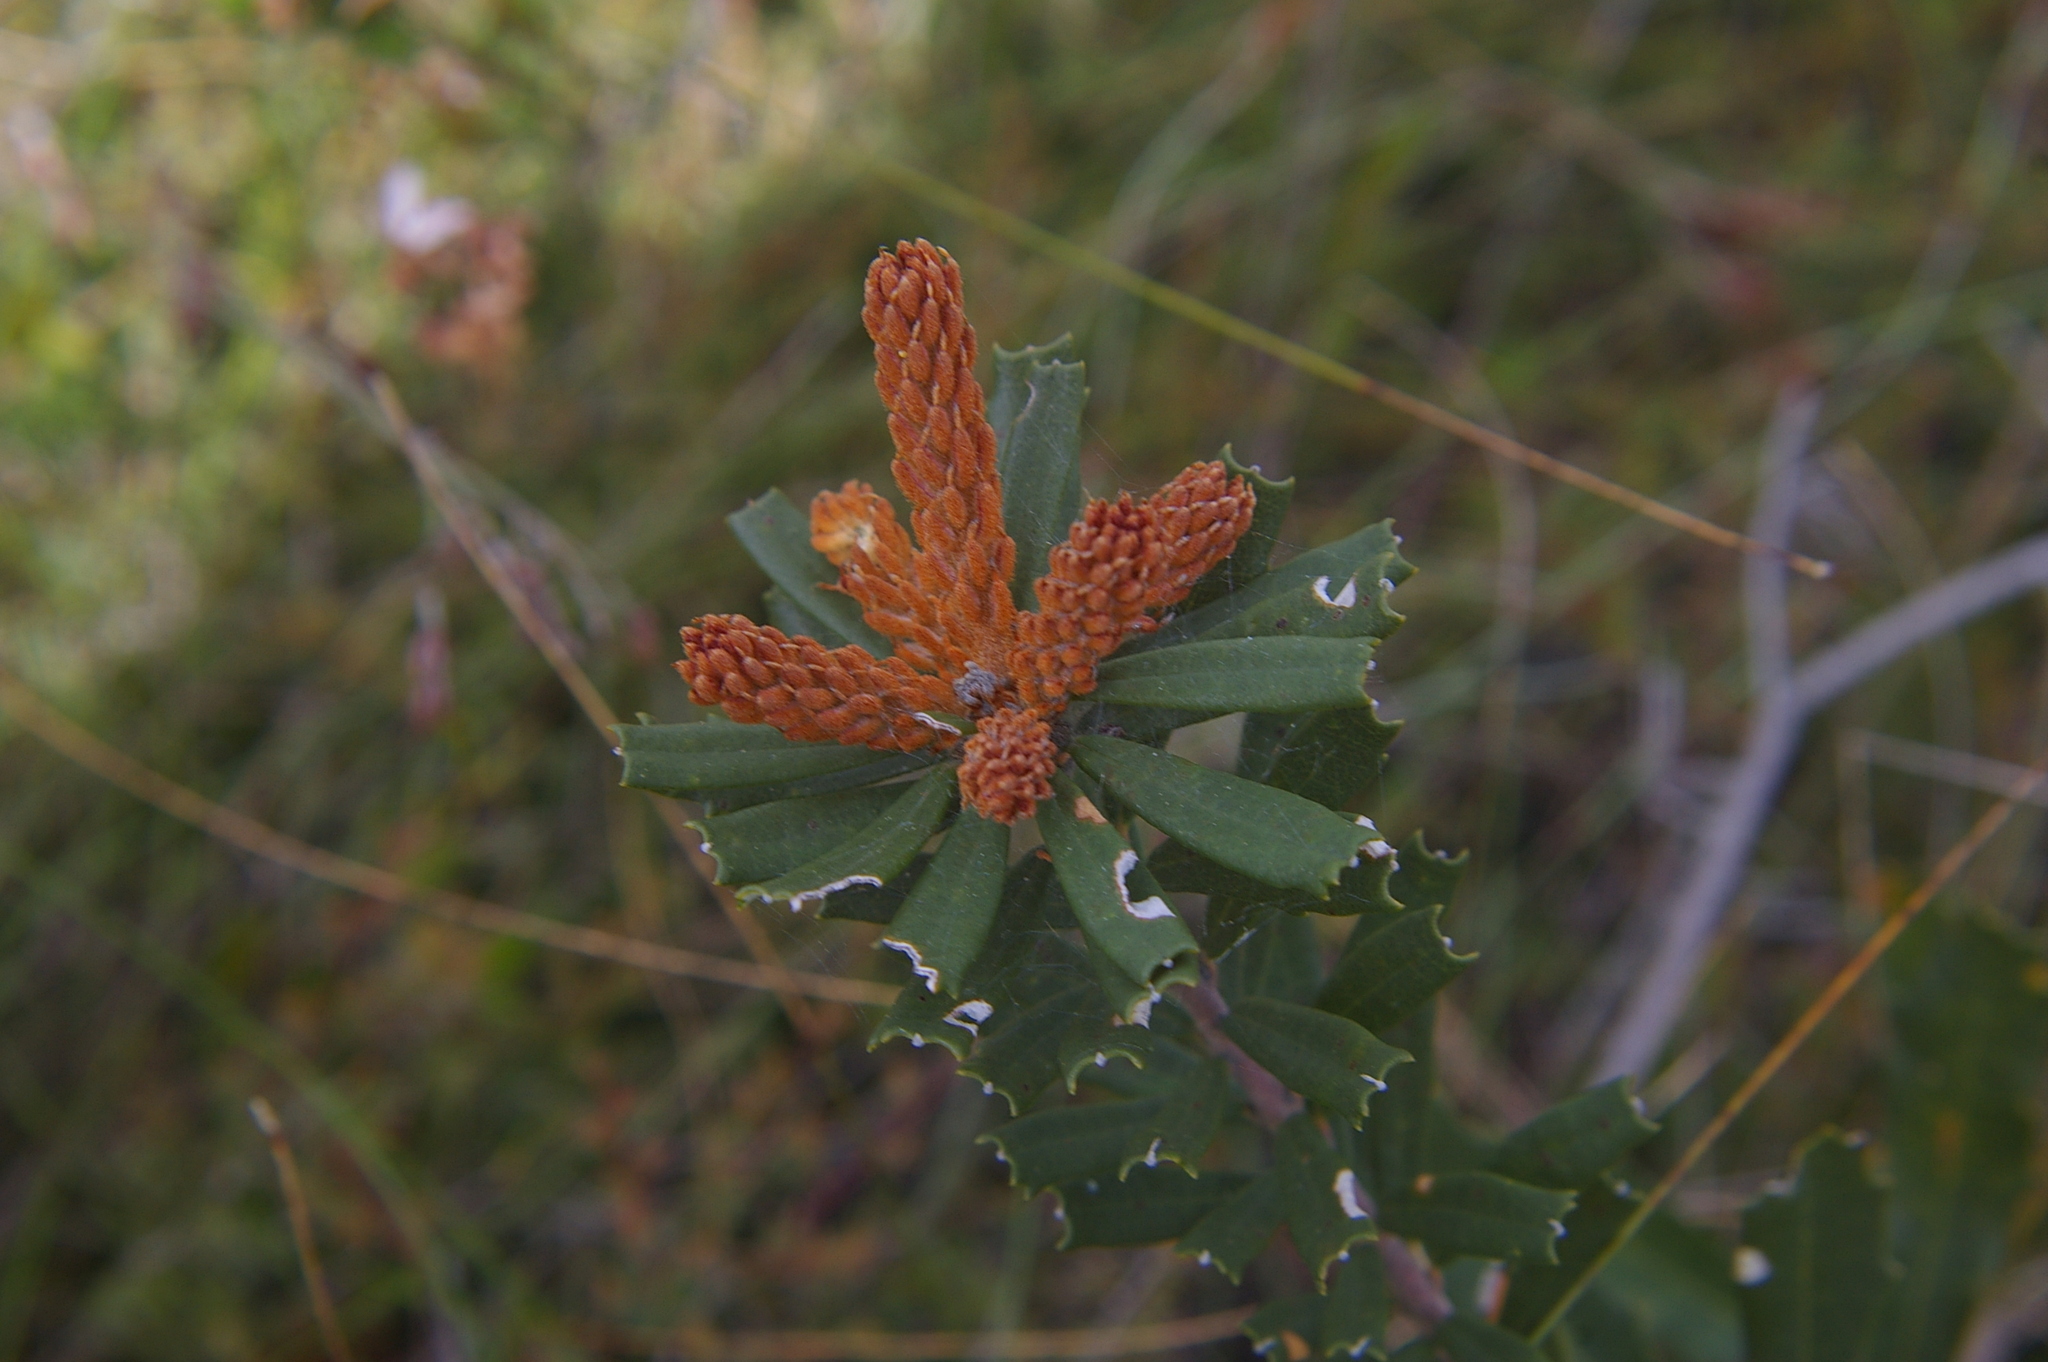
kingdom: Plantae
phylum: Tracheophyta
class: Magnoliopsida
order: Proteales
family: Proteaceae
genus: Banksia
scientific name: Banksia marginata
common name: Silver banksia
